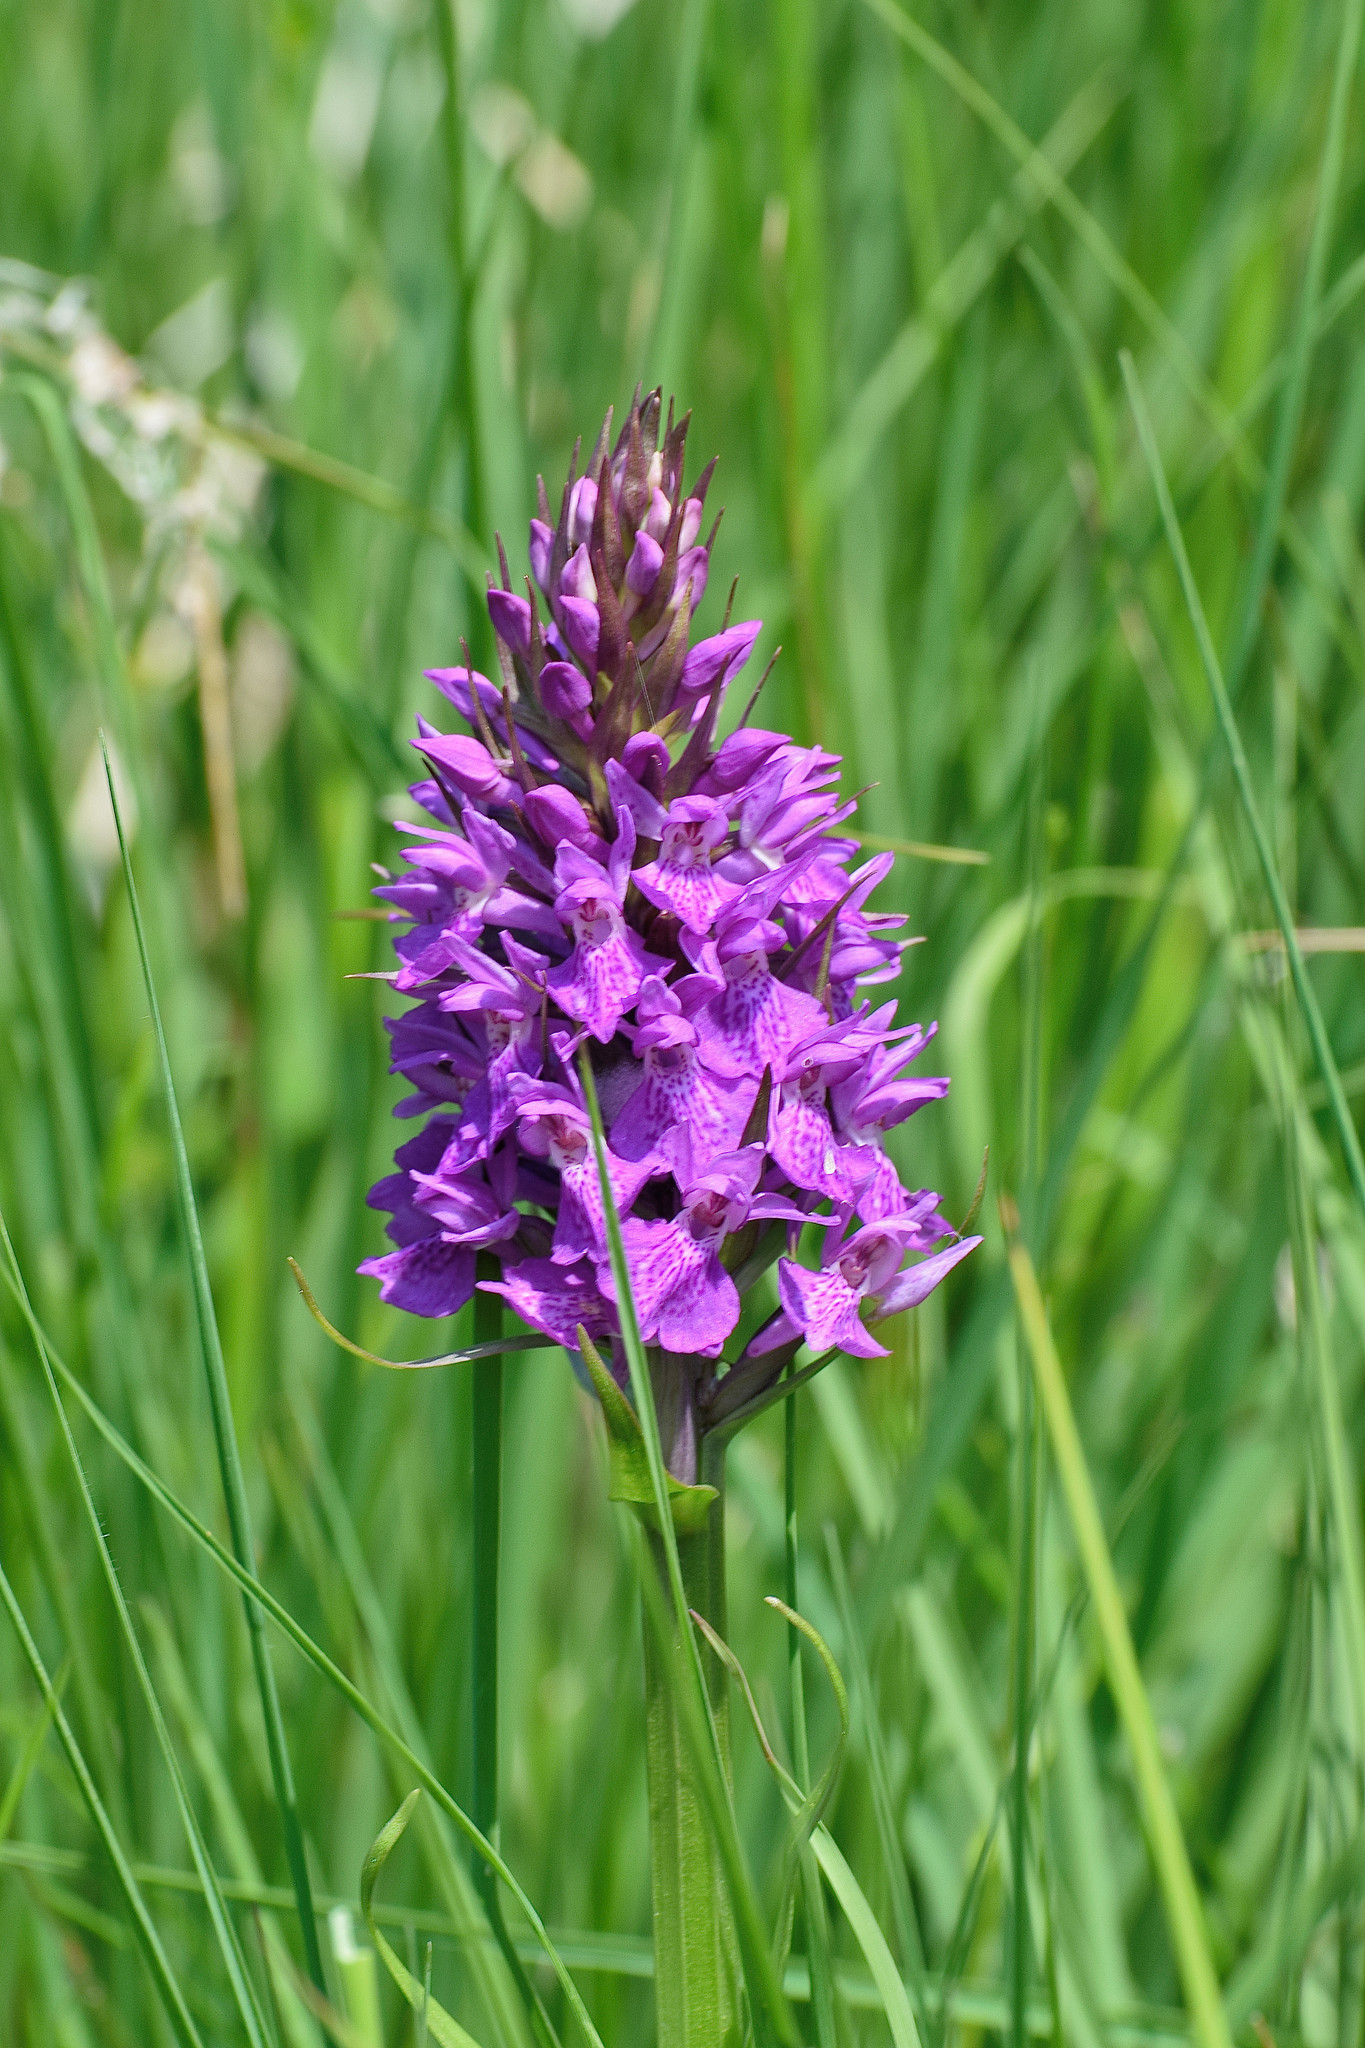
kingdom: Plantae
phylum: Tracheophyta
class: Liliopsida
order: Asparagales
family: Orchidaceae
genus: Dactylorhiza
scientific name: Dactylorhiza majalis
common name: Marsh orchid
